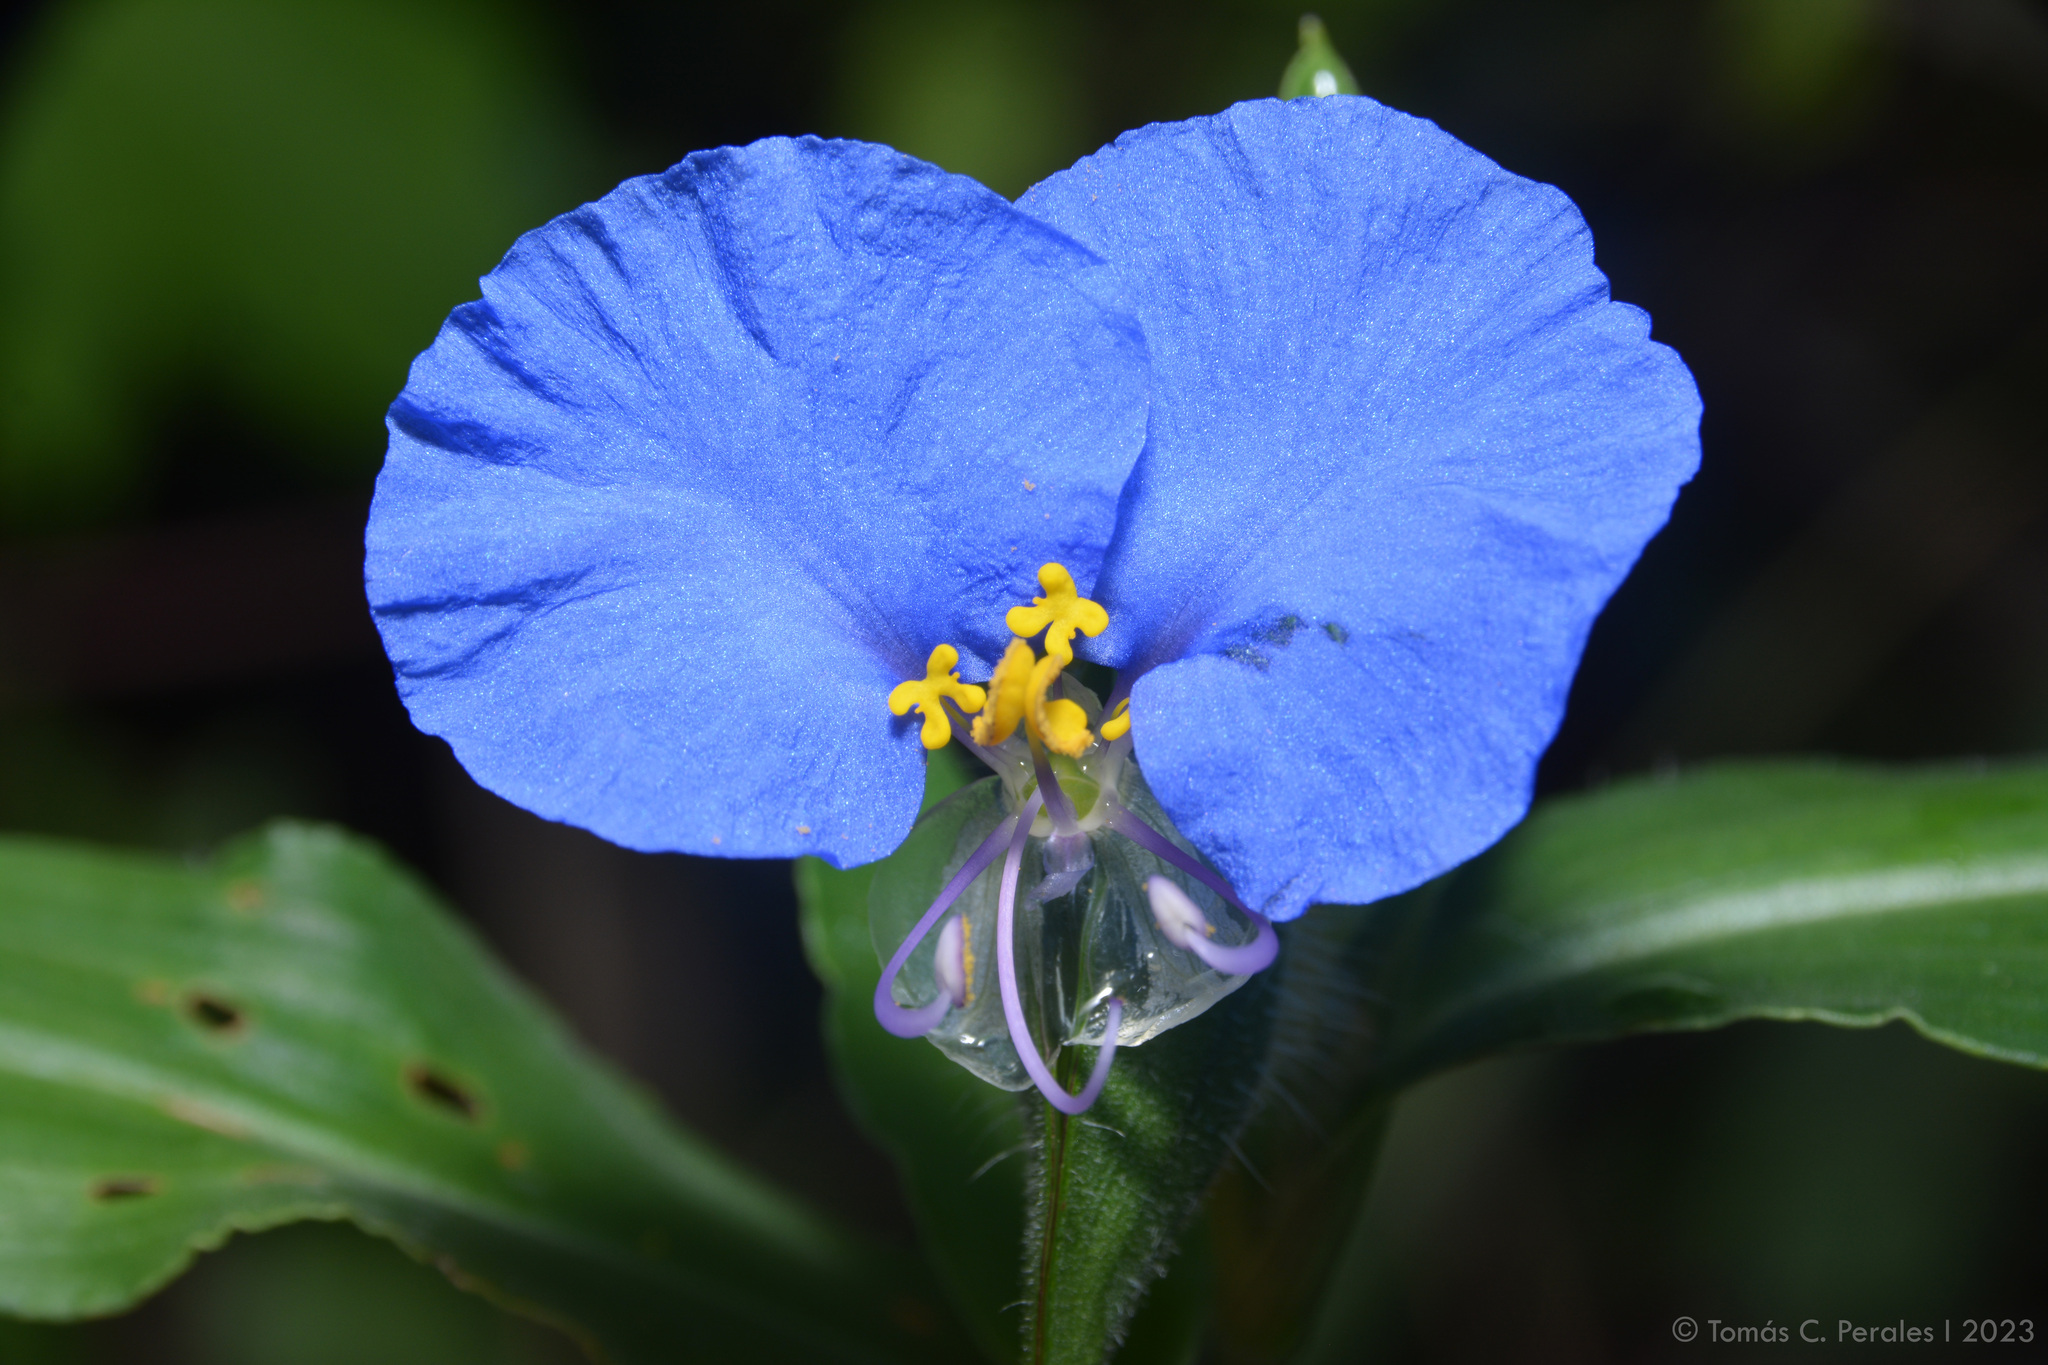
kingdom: Plantae
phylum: Tracheophyta
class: Liliopsida
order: Commelinales
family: Commelinaceae
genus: Commelina
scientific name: Commelina erecta
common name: Blousel blommetjie
